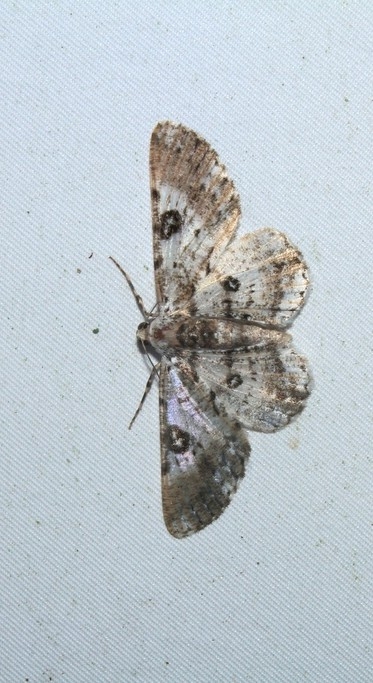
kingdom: Animalia
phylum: Arthropoda
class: Insecta
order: Lepidoptera
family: Geometridae
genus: Iridopsis
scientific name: Iridopsis validaria
